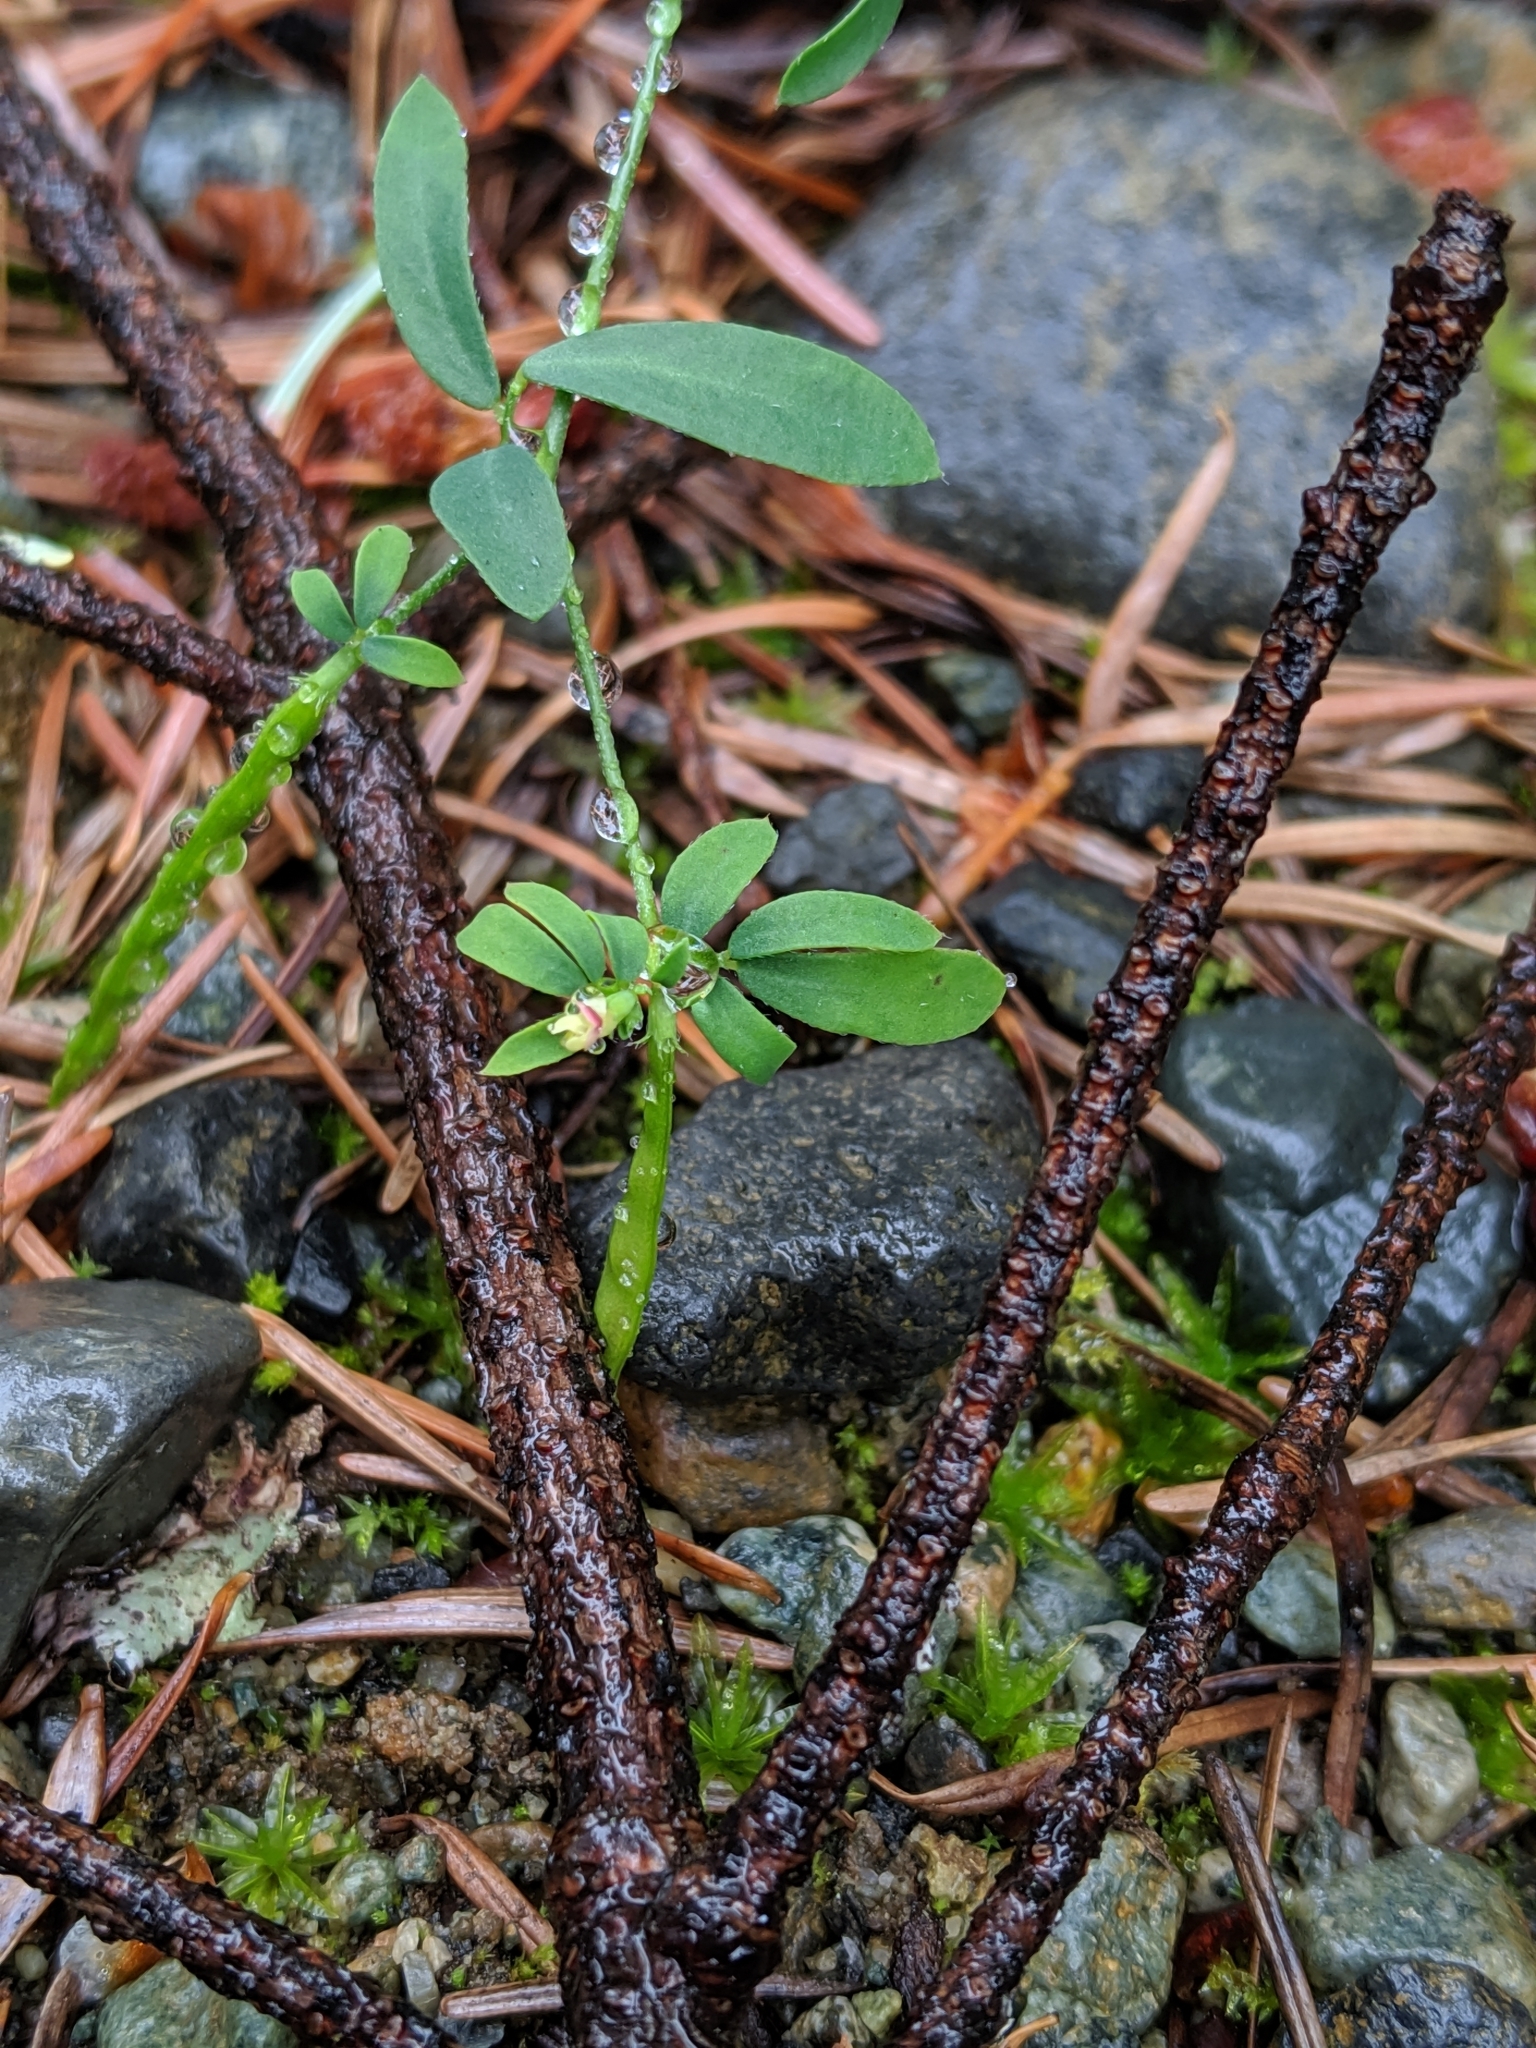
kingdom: Plantae
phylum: Tracheophyta
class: Magnoliopsida
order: Fabales
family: Fabaceae
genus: Acmispon
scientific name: Acmispon parviflorus
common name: Desert deer-vetch
